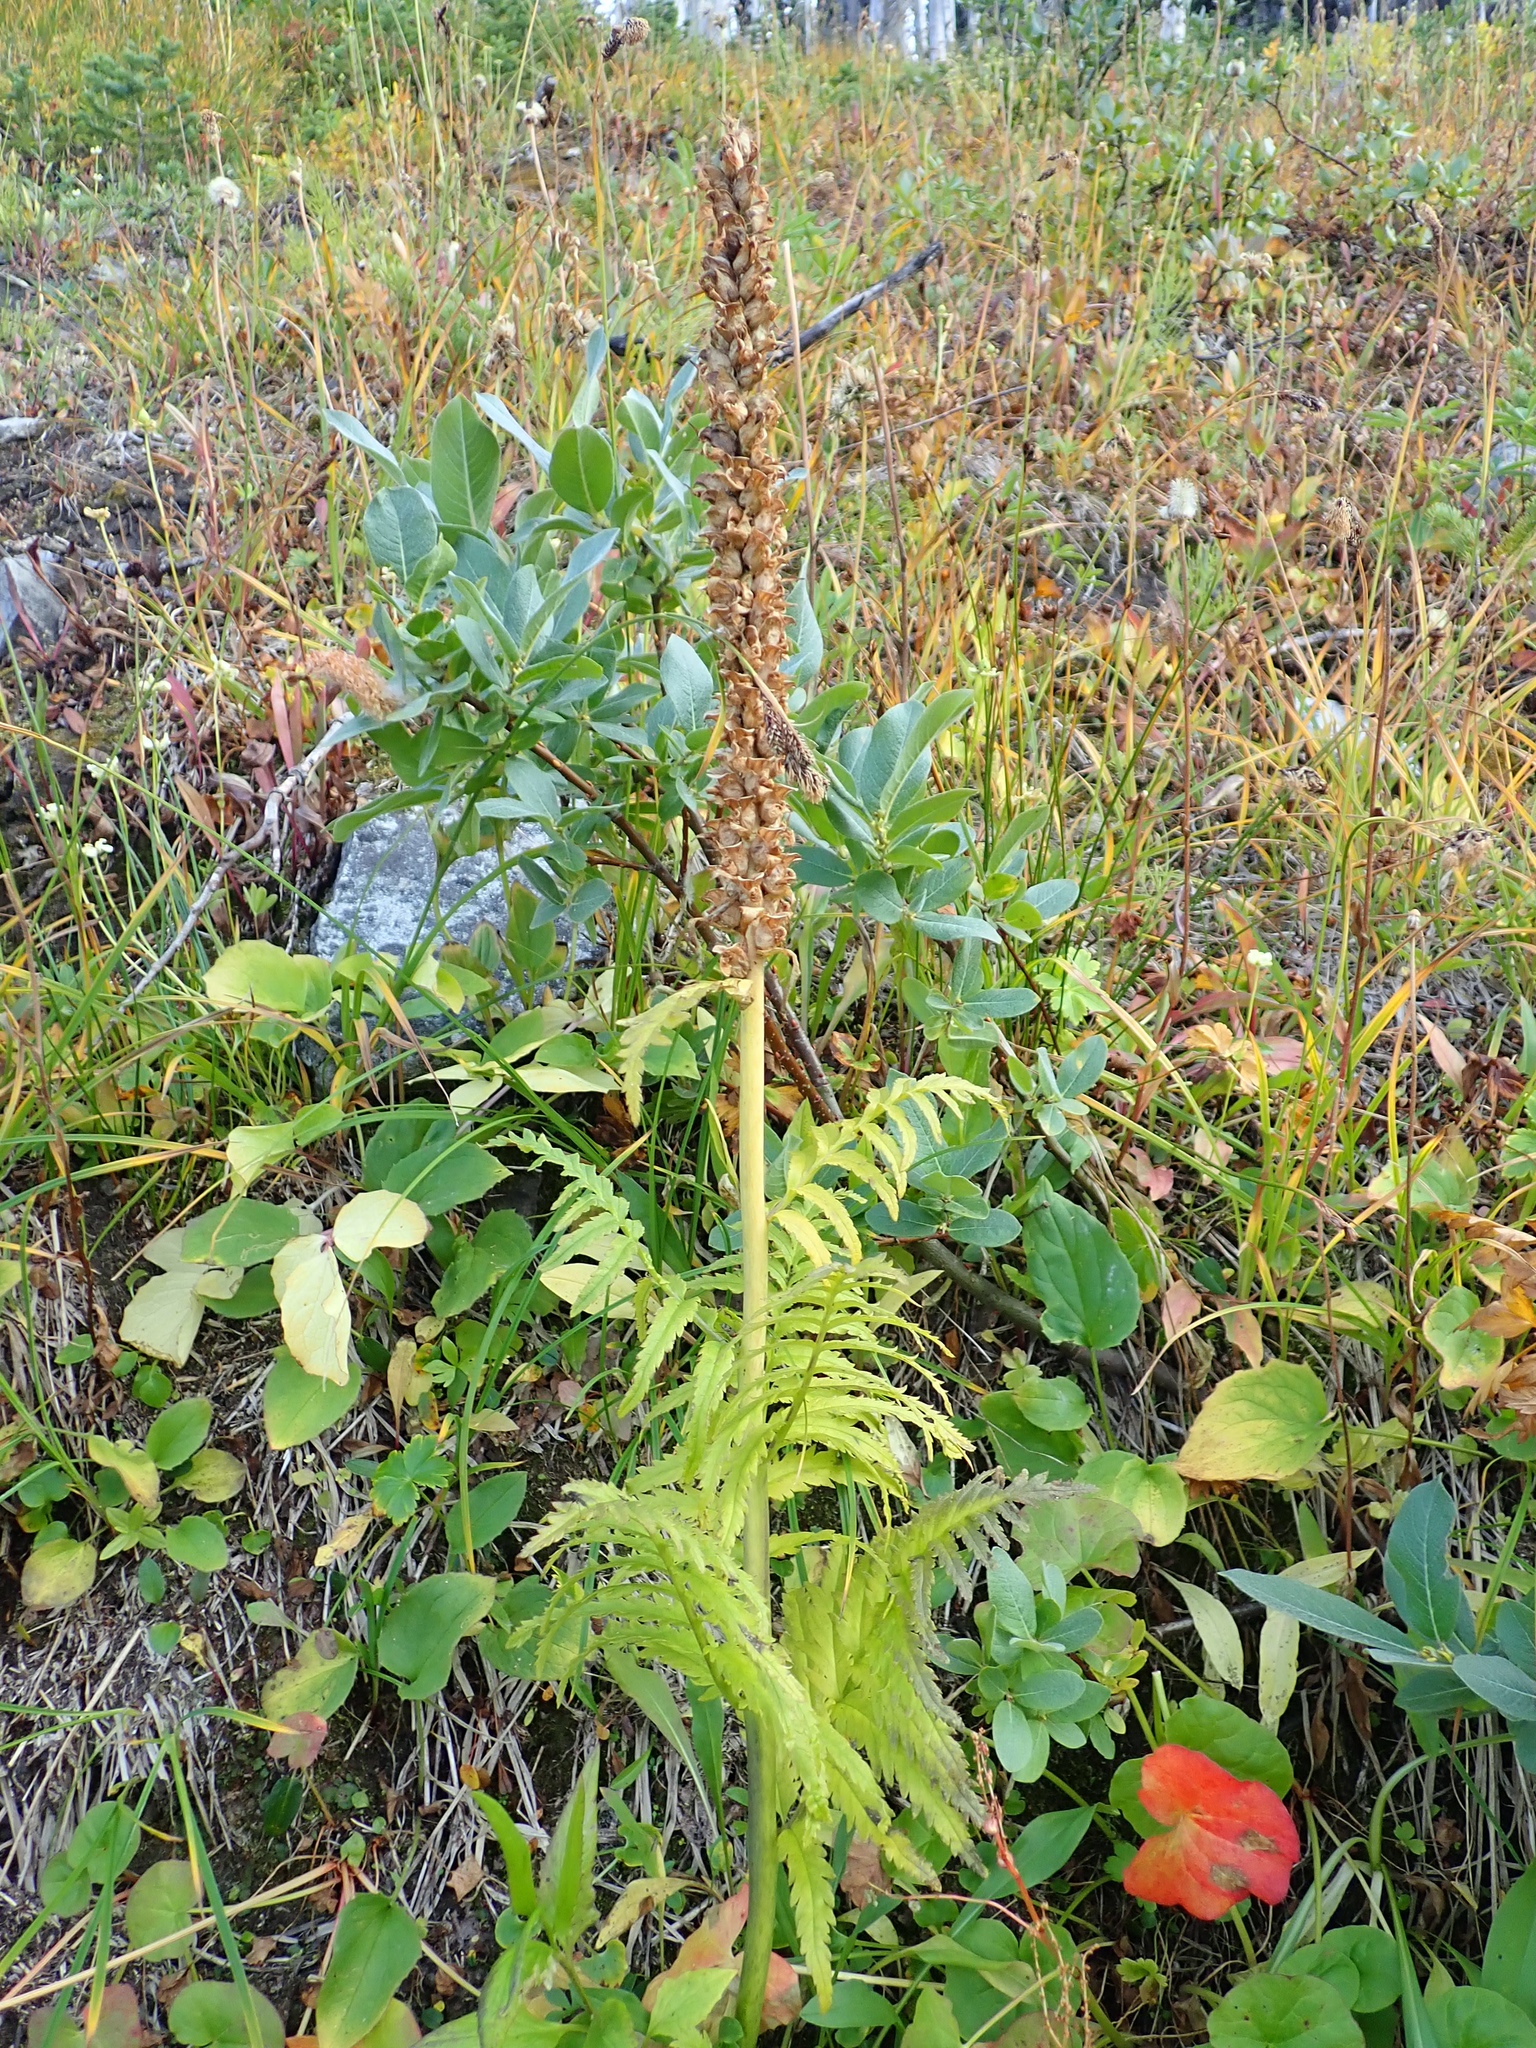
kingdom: Plantae
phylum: Tracheophyta
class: Magnoliopsida
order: Lamiales
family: Orobanchaceae
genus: Pedicularis
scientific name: Pedicularis bracteosa
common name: Bracted lousewort
